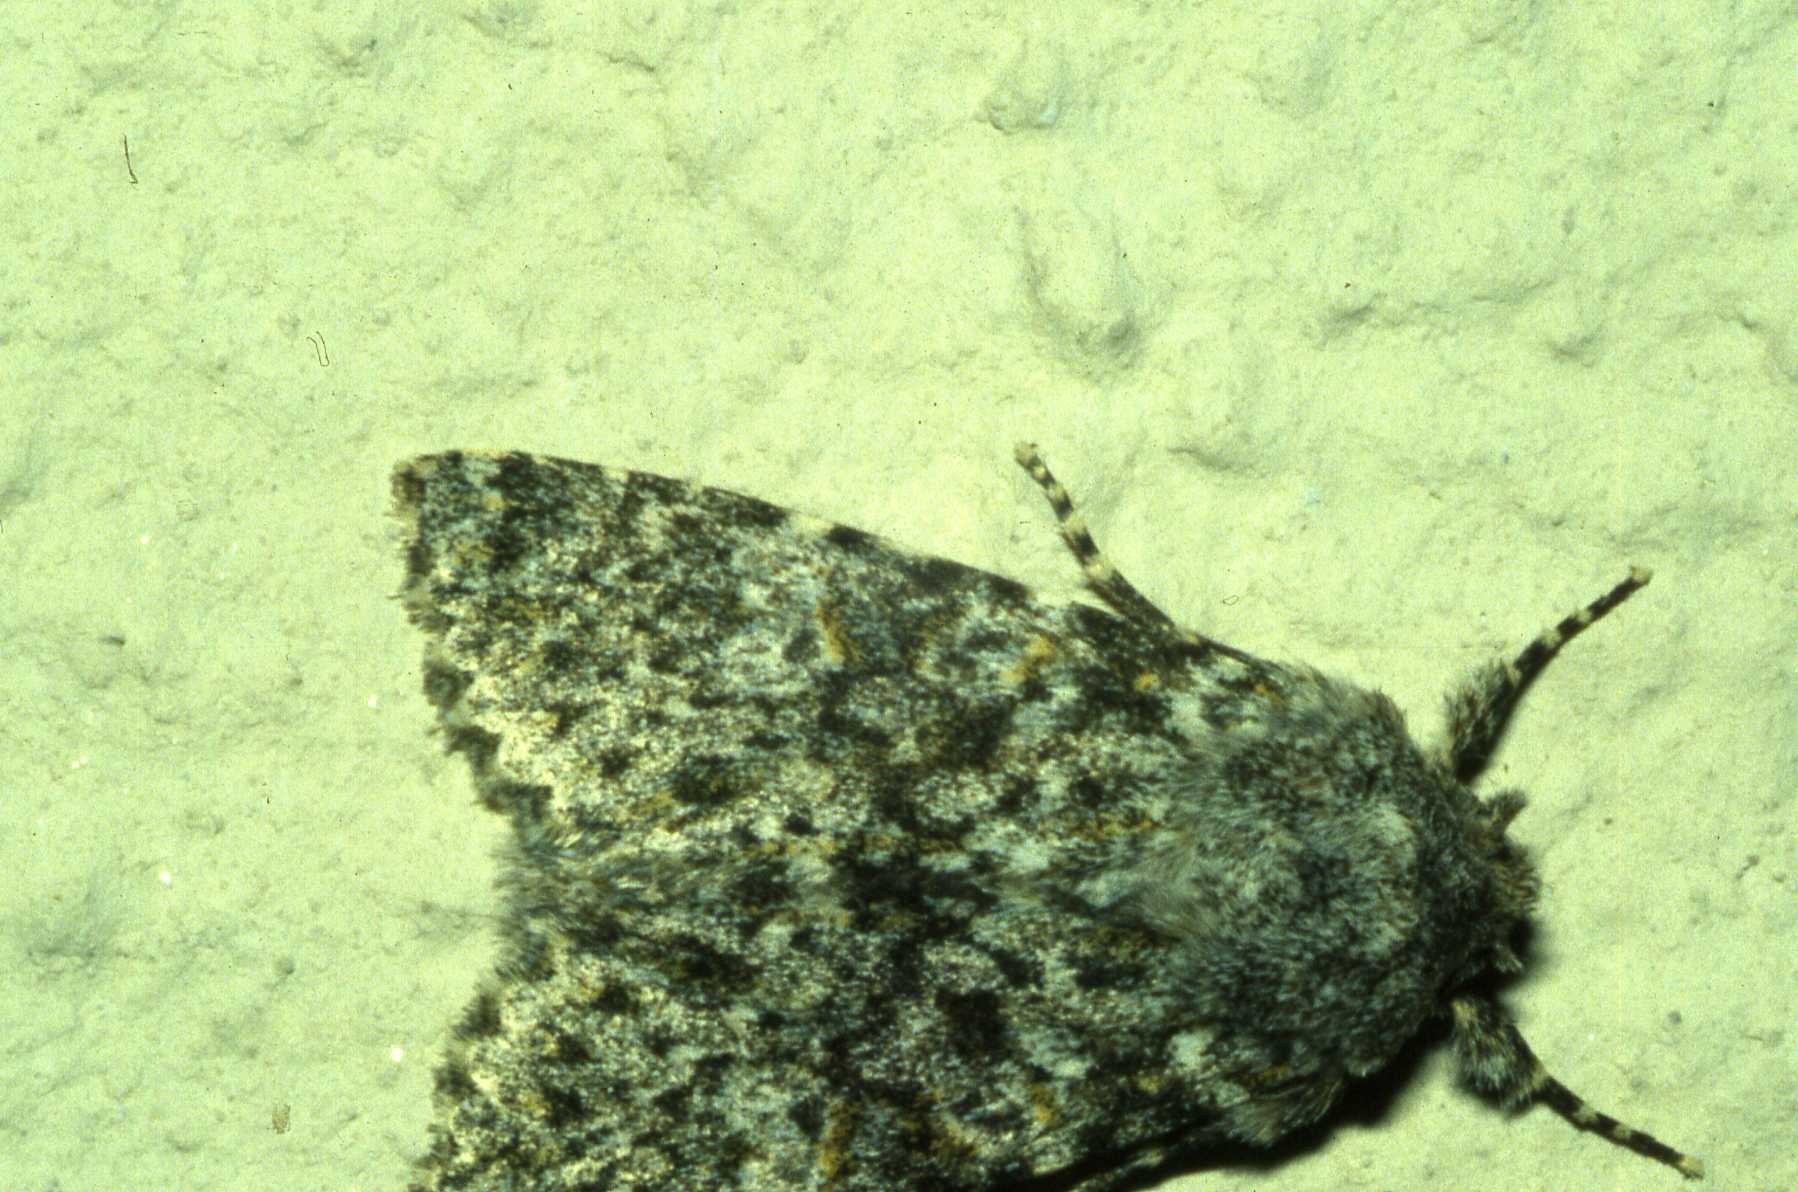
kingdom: Animalia
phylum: Arthropoda
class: Insecta
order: Lepidoptera
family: Noctuidae
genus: Polymixis
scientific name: Polymixis xanthomista
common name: Black-banded
